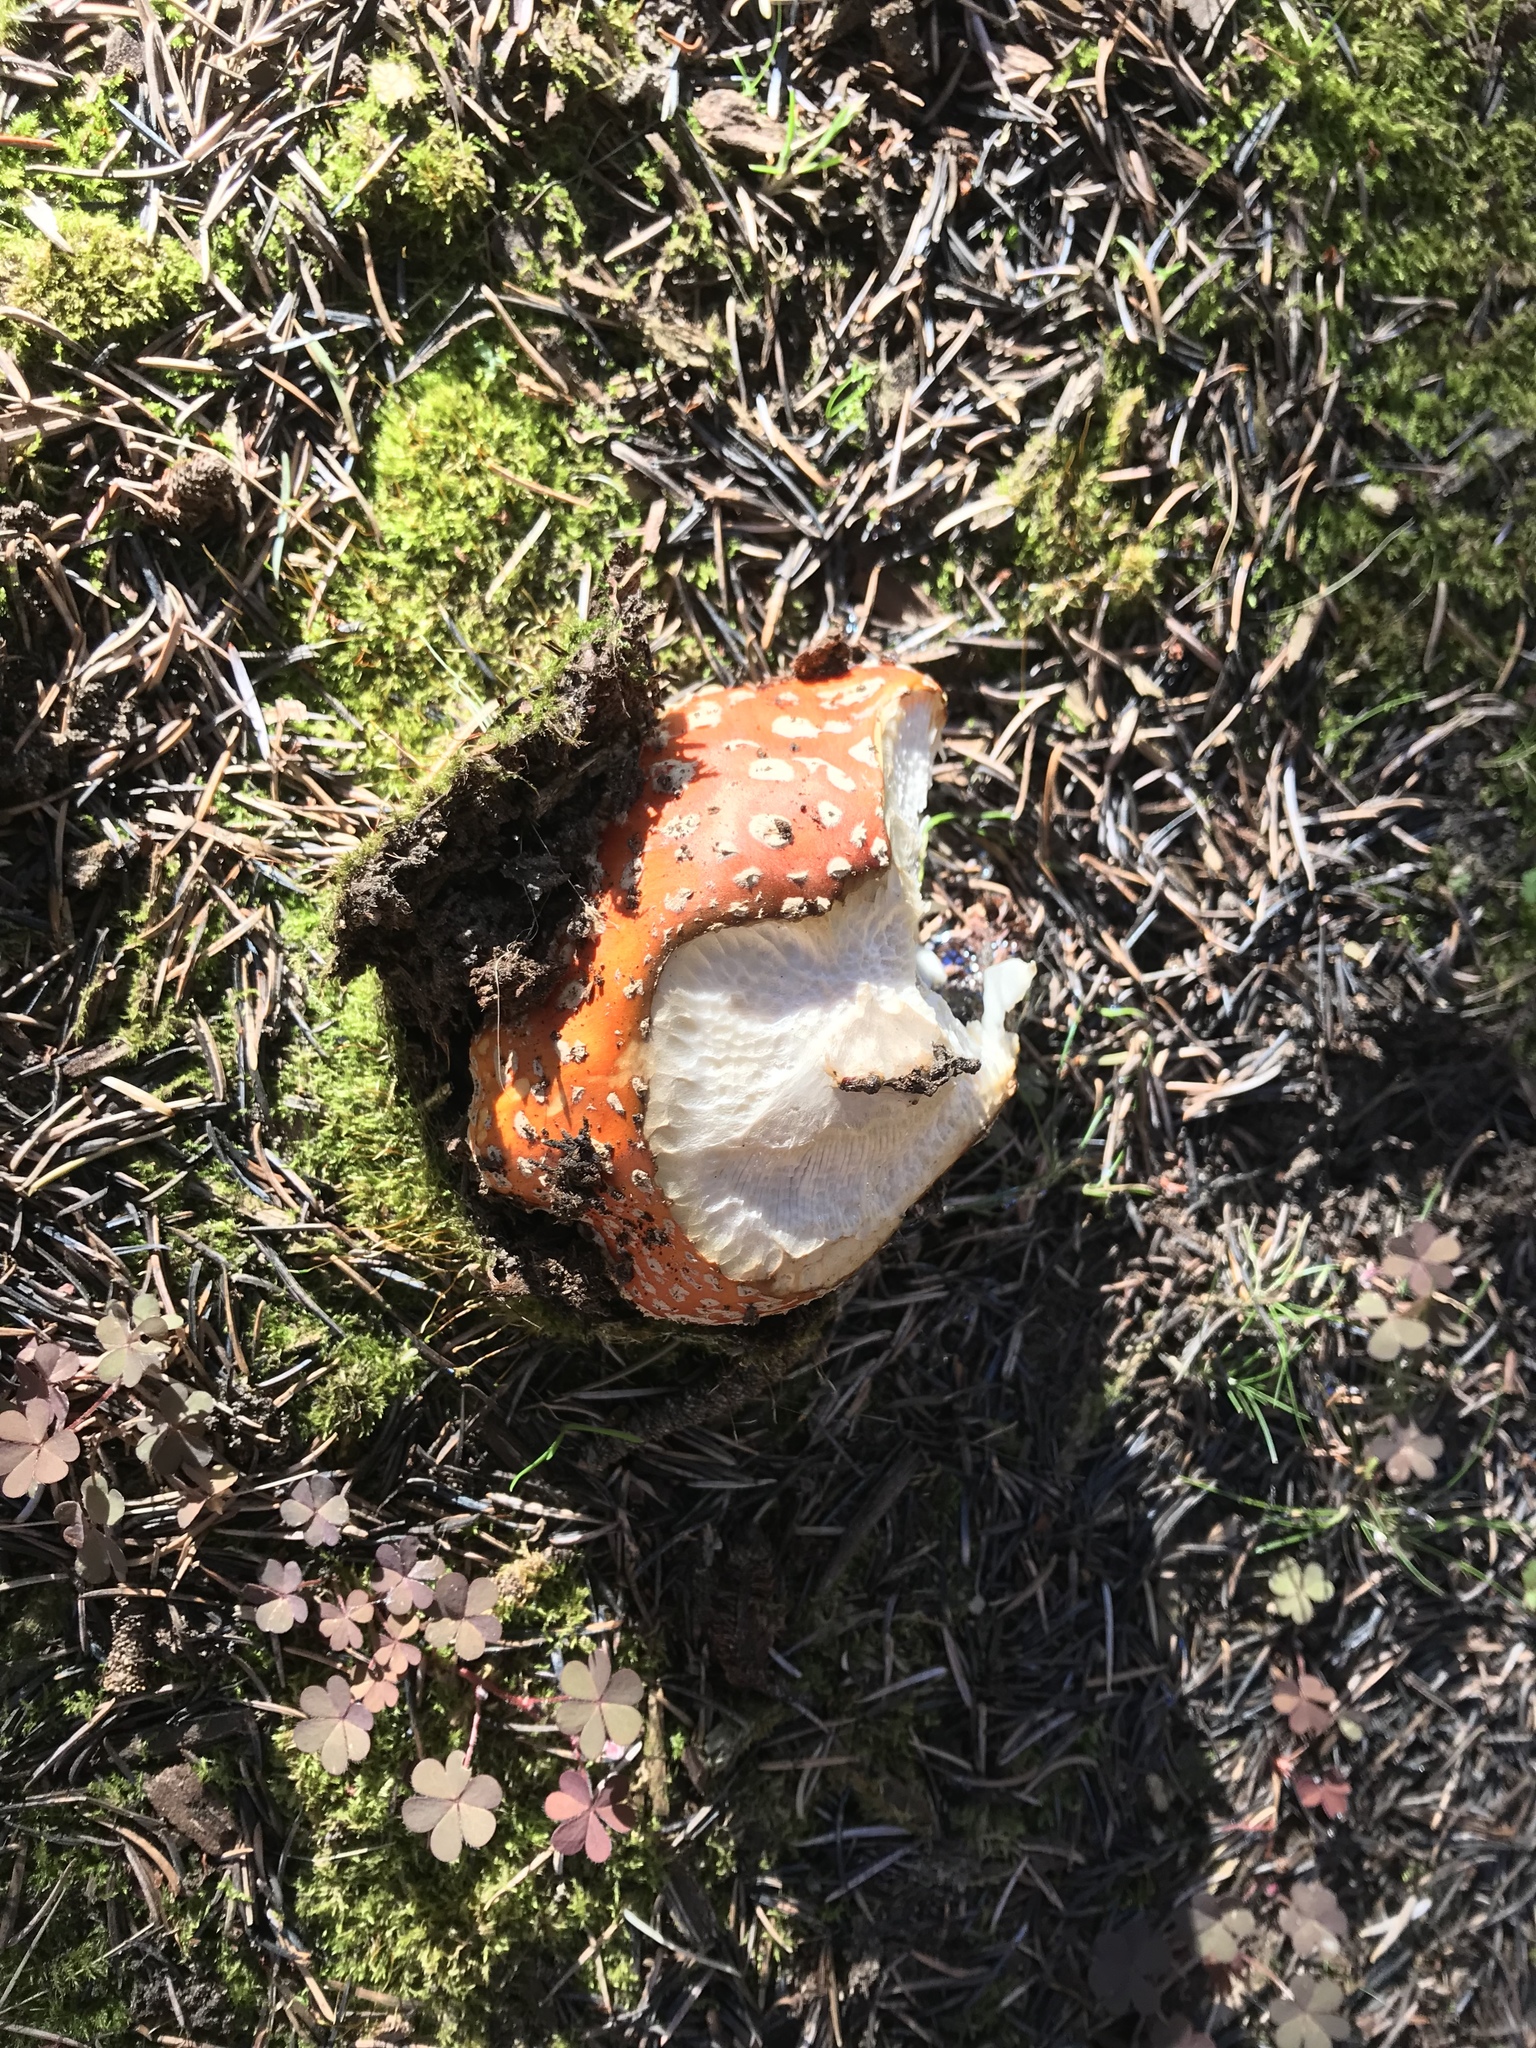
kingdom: Fungi
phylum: Basidiomycota
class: Agaricomycetes
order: Agaricales
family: Amanitaceae
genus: Amanita
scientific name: Amanita muscaria
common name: Fly agaric
